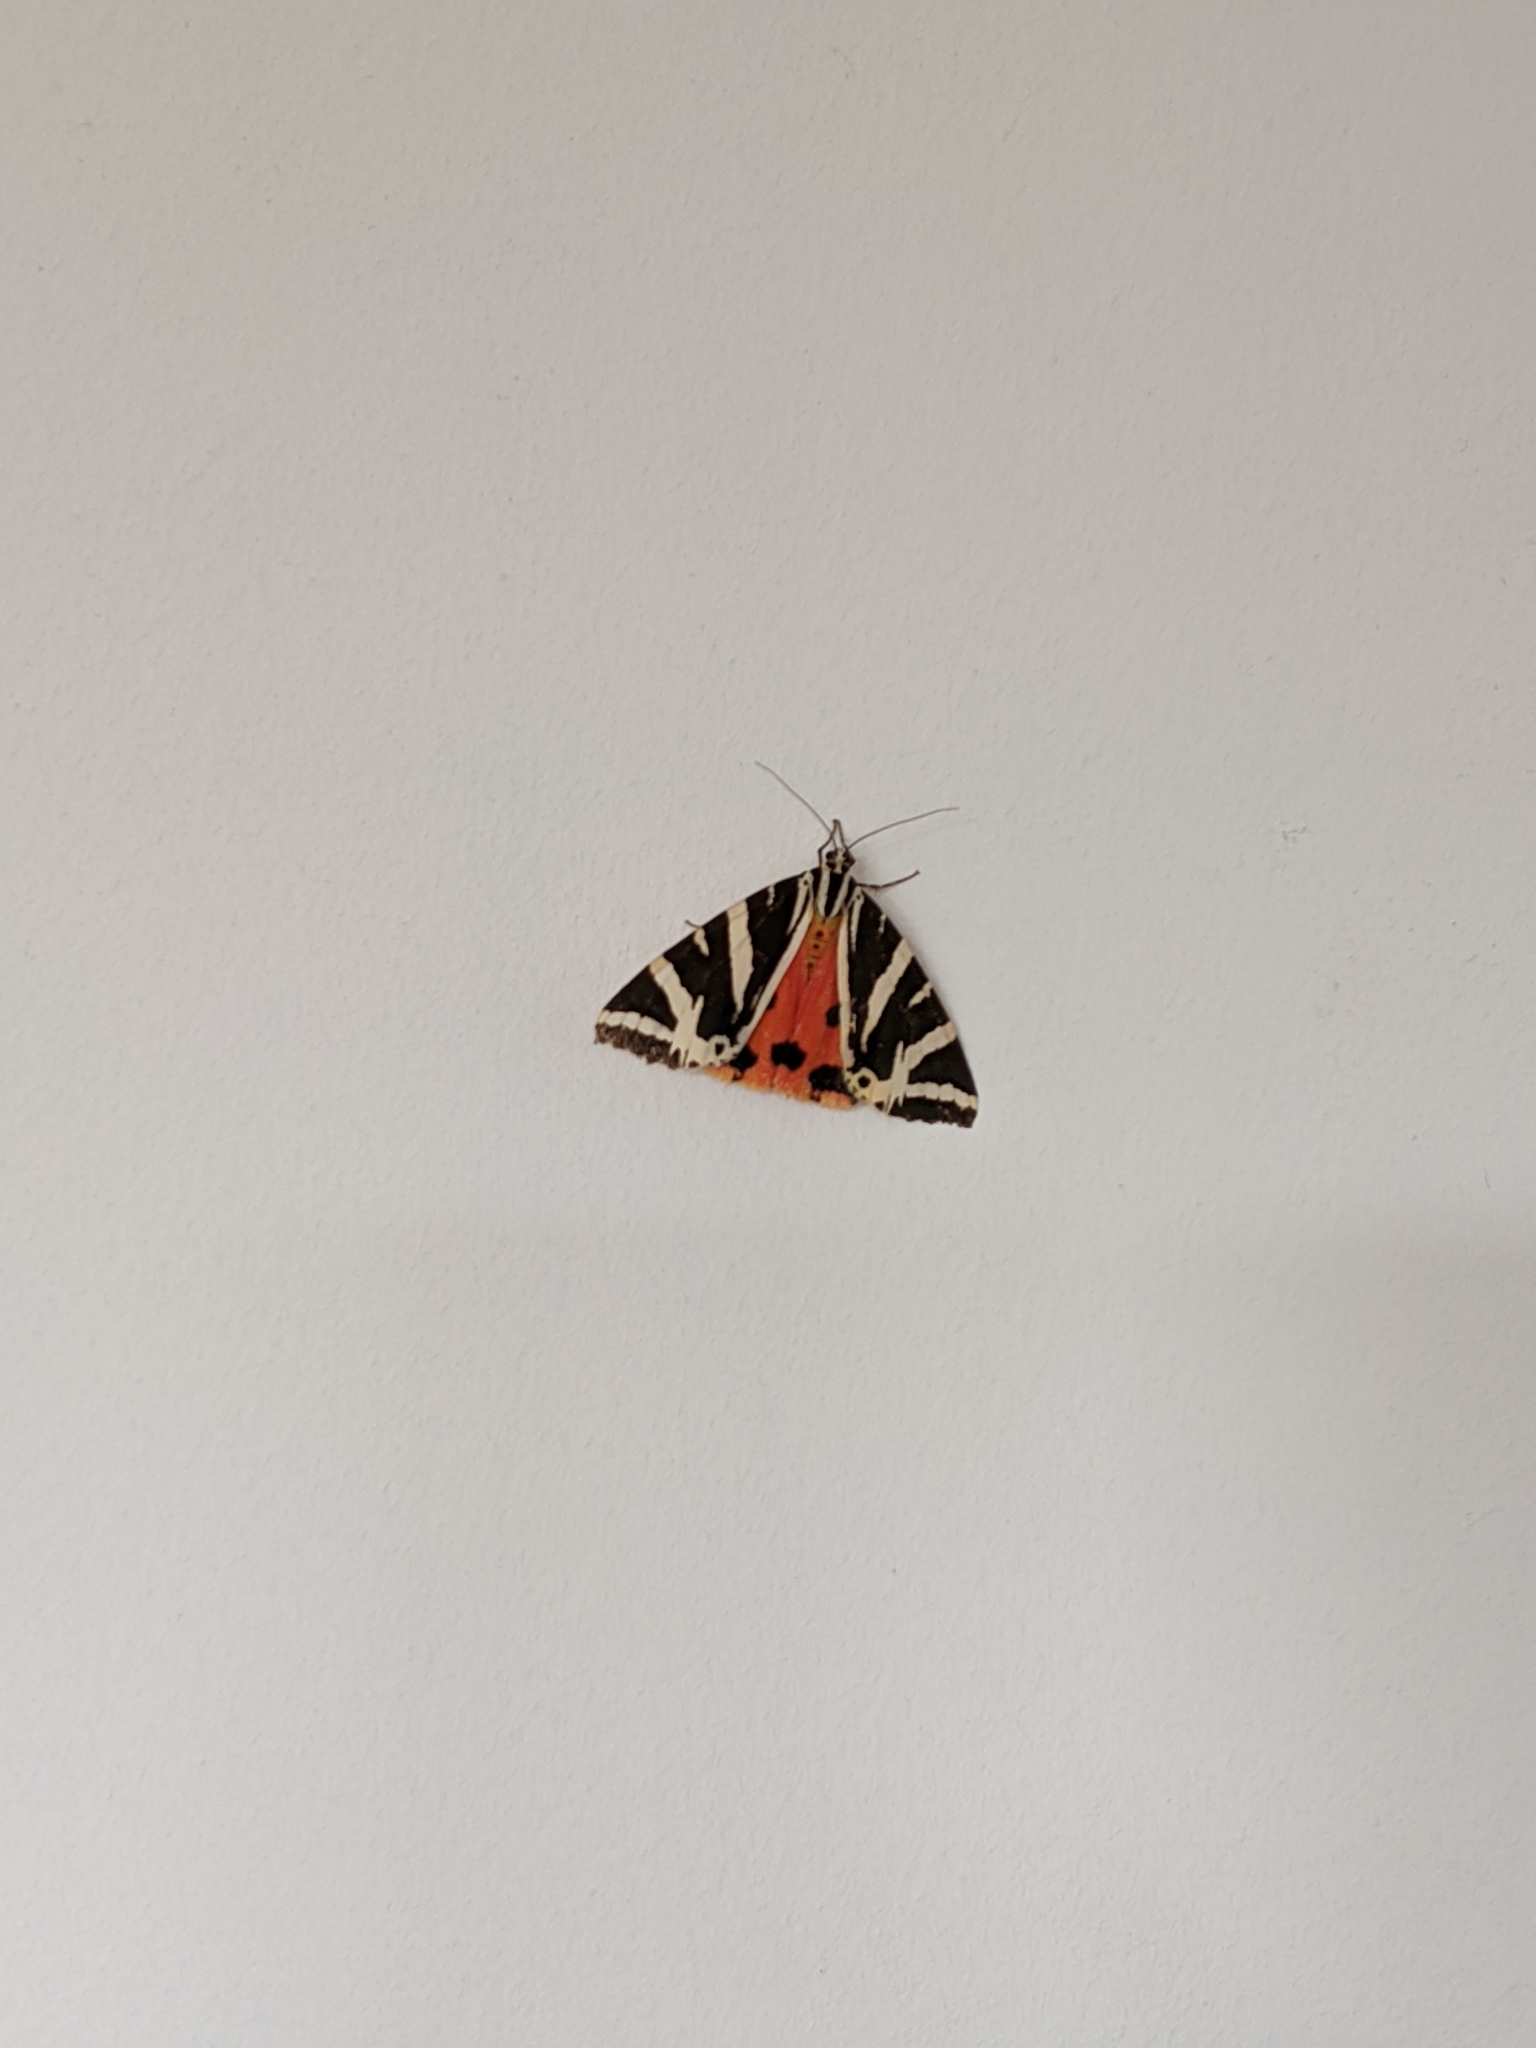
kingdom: Animalia
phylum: Arthropoda
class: Insecta
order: Lepidoptera
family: Erebidae
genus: Euplagia
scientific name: Euplagia quadripunctaria
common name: Jersey tiger
